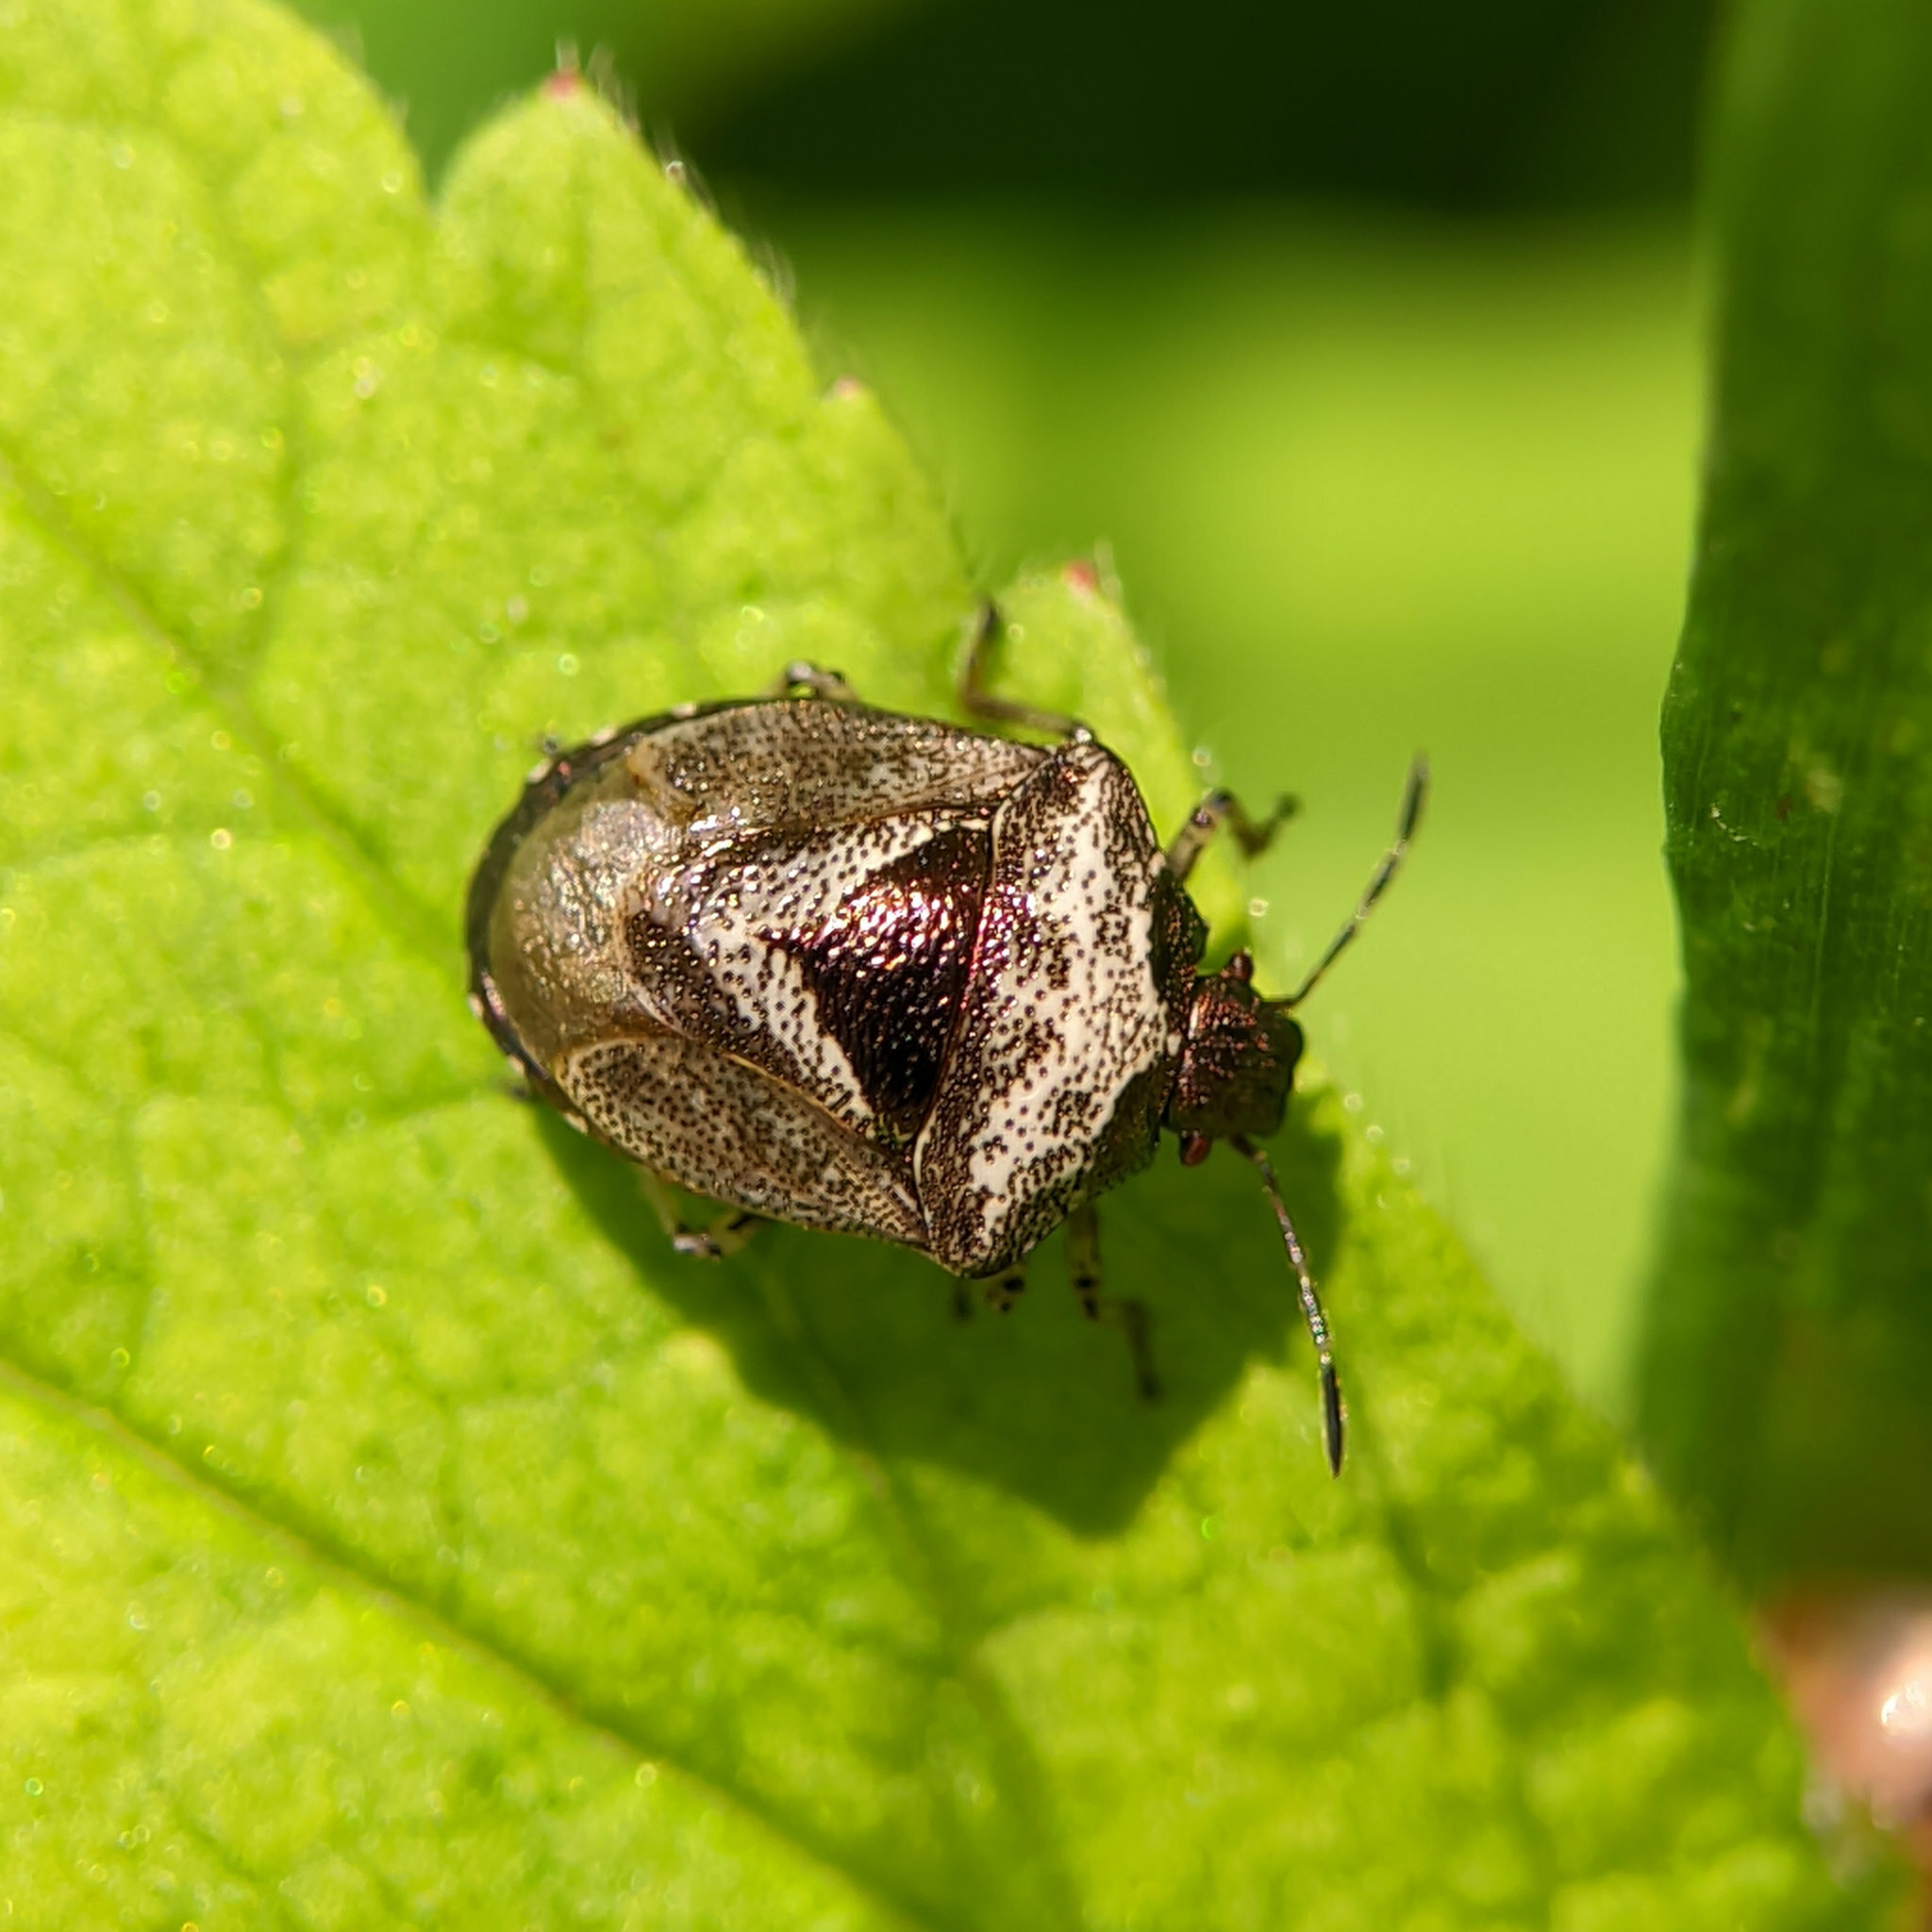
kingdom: Animalia
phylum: Arthropoda
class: Insecta
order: Hemiptera
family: Pentatomidae
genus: Eysarcoris
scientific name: Eysarcoris venustissimus
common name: Woundwort shieldbug
